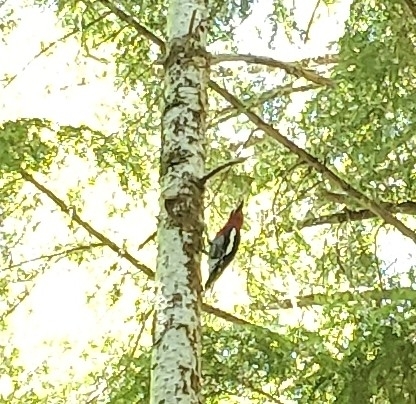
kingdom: Animalia
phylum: Chordata
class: Aves
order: Piciformes
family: Picidae
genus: Sphyrapicus
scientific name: Sphyrapicus ruber
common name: Red-breasted sapsucker
